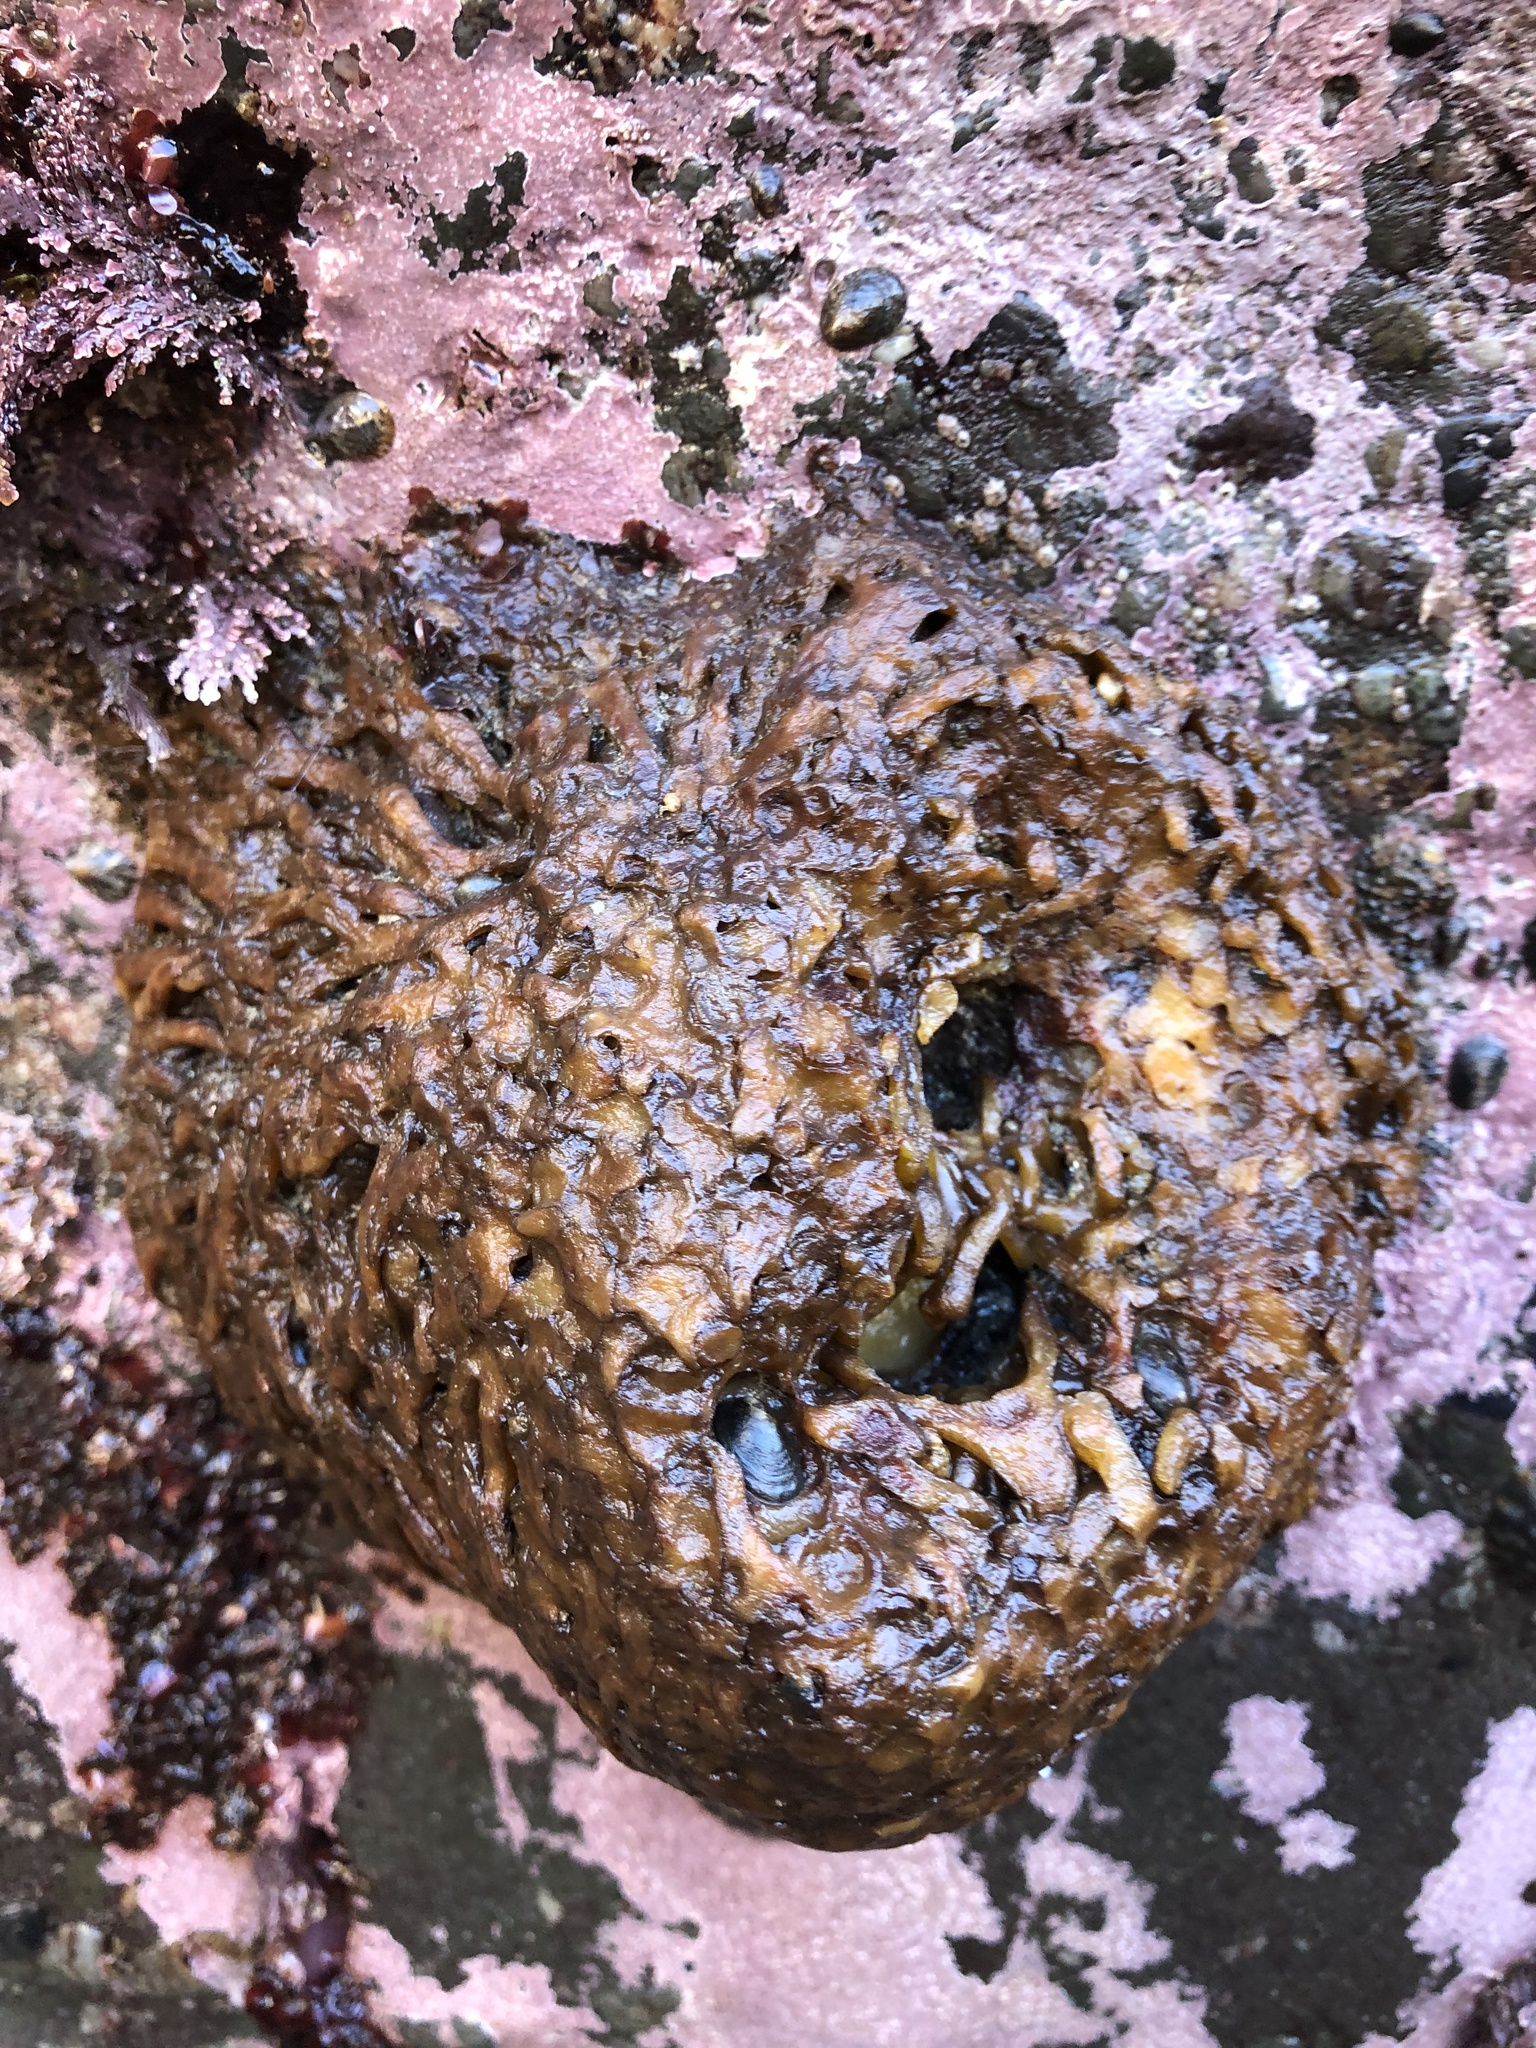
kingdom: Chromista
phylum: Ochrophyta
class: Phaeophyceae
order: Laminariales
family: Lessoniaceae
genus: Egregia
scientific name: Egregia menziesii
